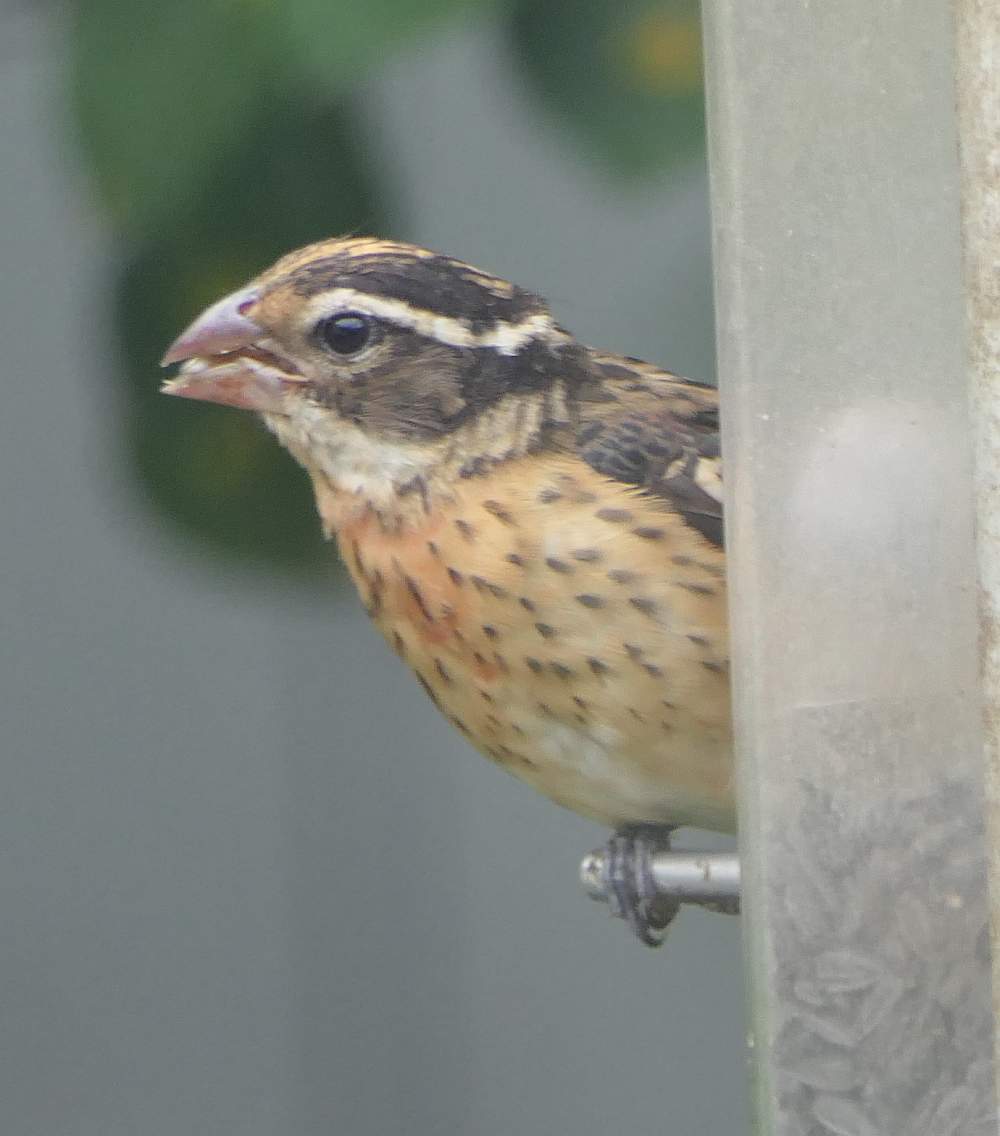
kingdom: Animalia
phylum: Chordata
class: Aves
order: Passeriformes
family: Cardinalidae
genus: Pheucticus
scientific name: Pheucticus ludovicianus
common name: Rose-breasted grosbeak
